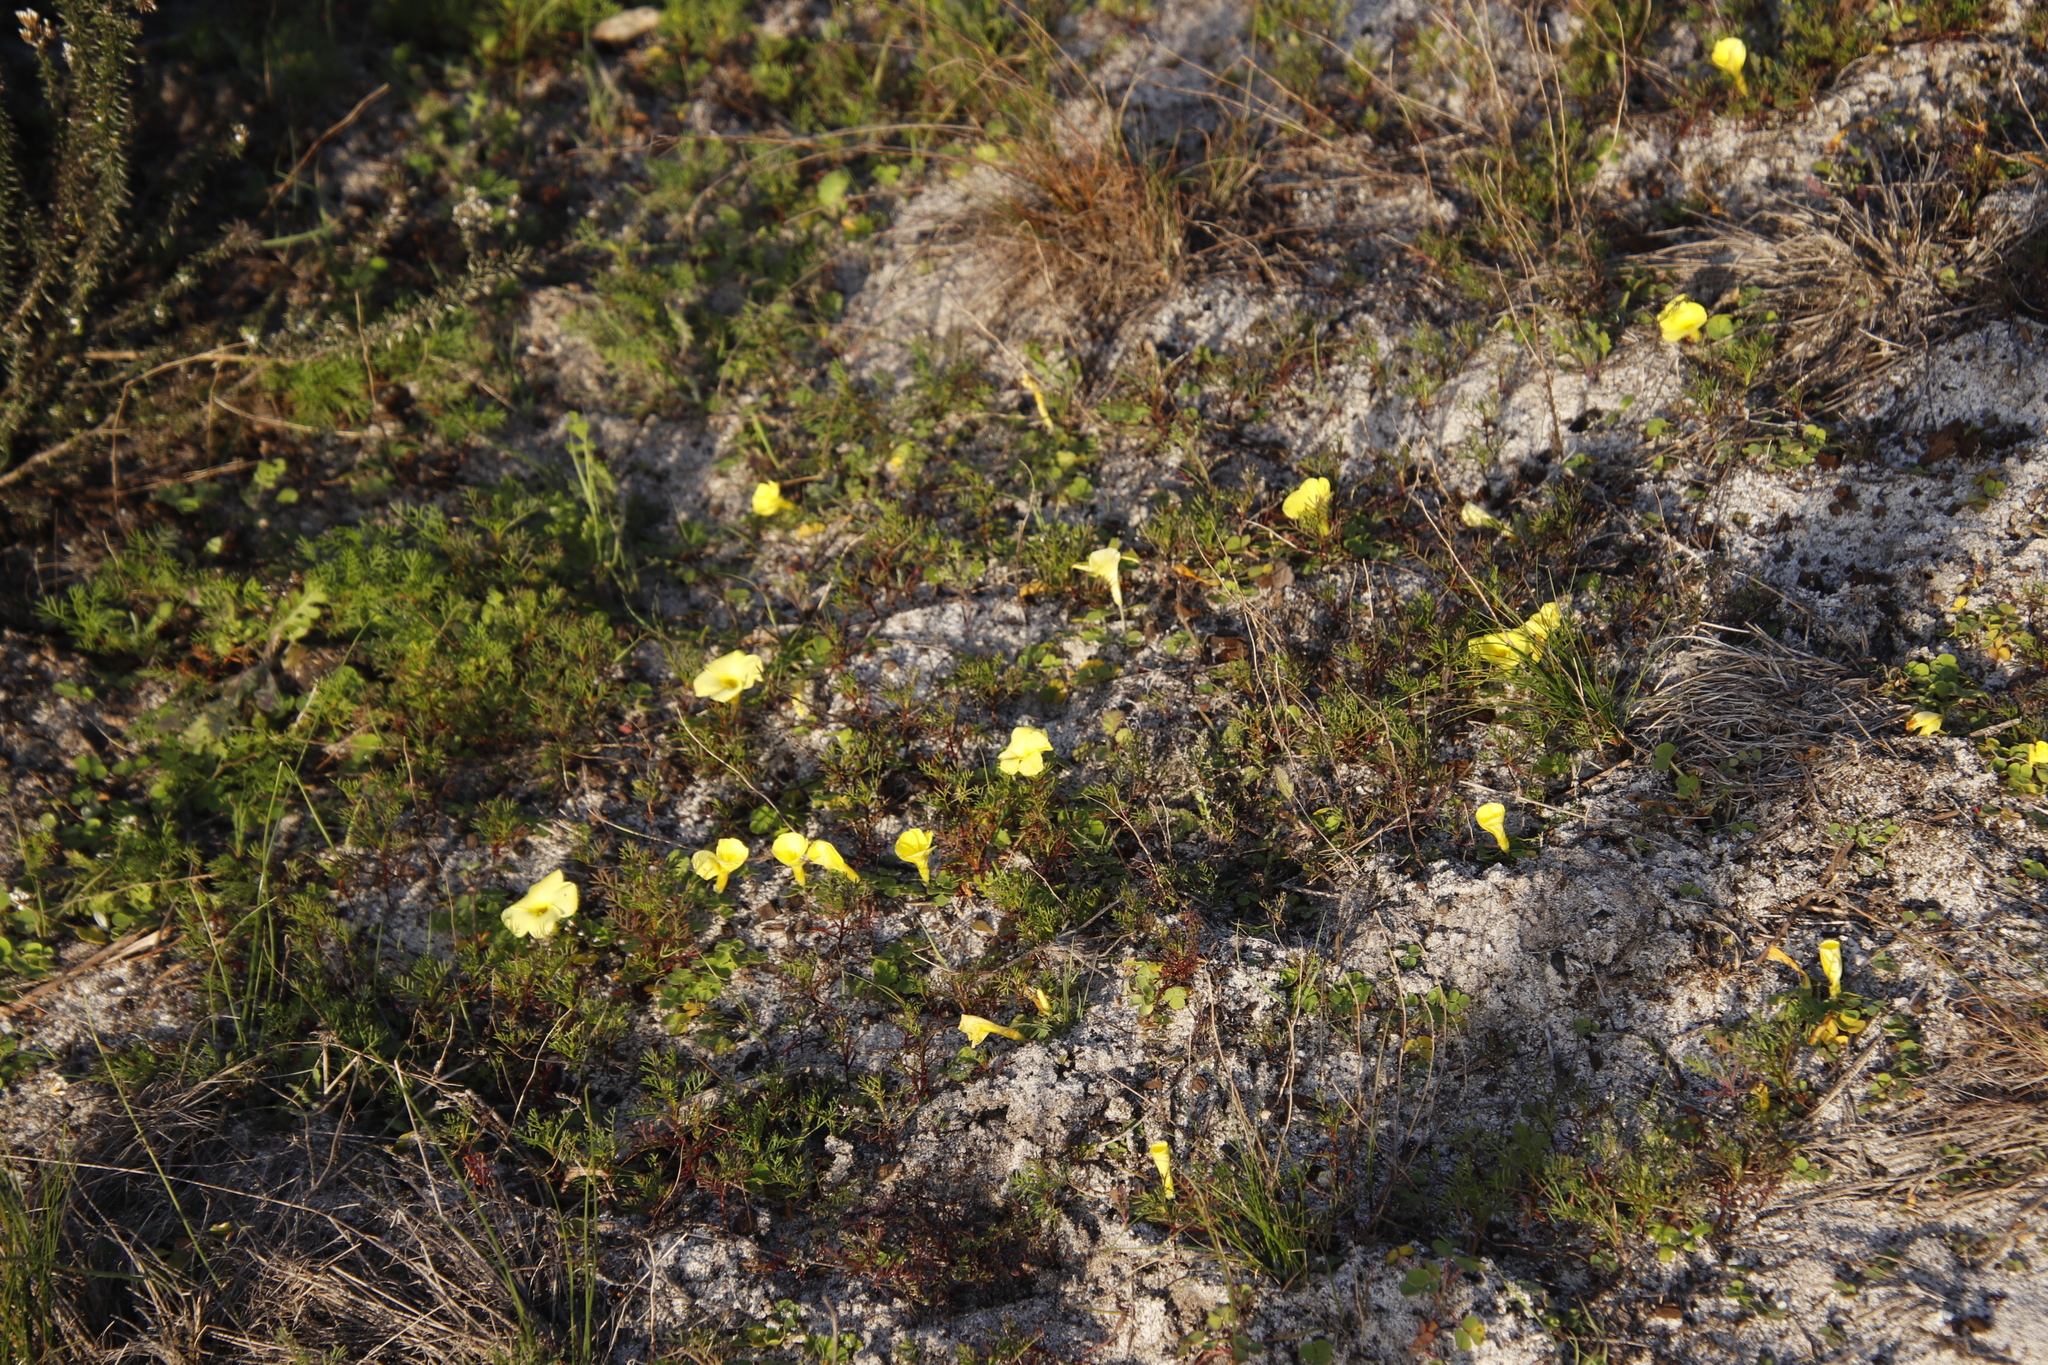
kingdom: Plantae
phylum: Tracheophyta
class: Magnoliopsida
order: Oxalidales
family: Oxalidaceae
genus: Oxalis
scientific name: Oxalis luteola
